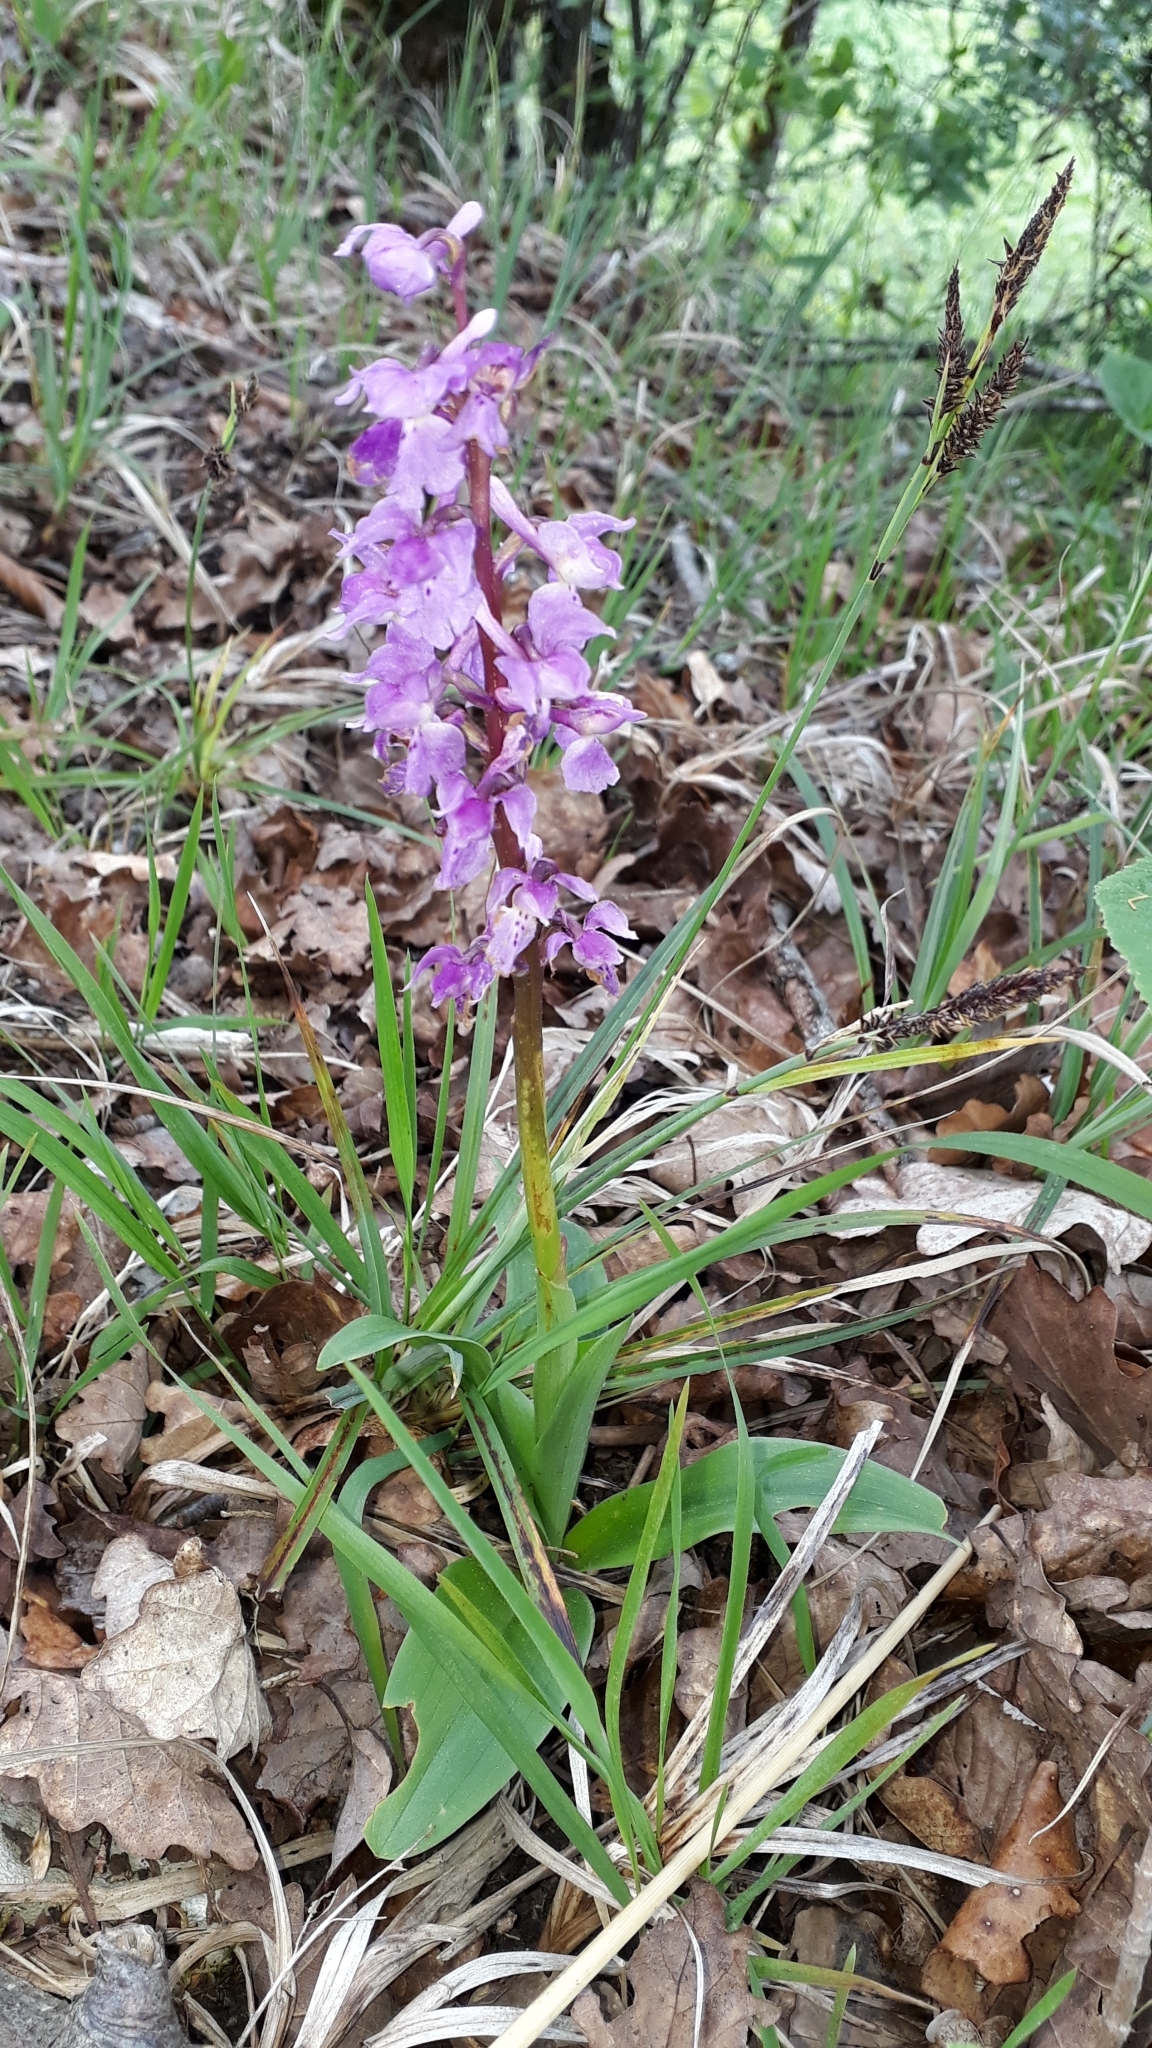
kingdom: Plantae
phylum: Tracheophyta
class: Liliopsida
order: Asparagales
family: Orchidaceae
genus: Orchis
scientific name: Orchis mascula
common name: Early-purple orchid
